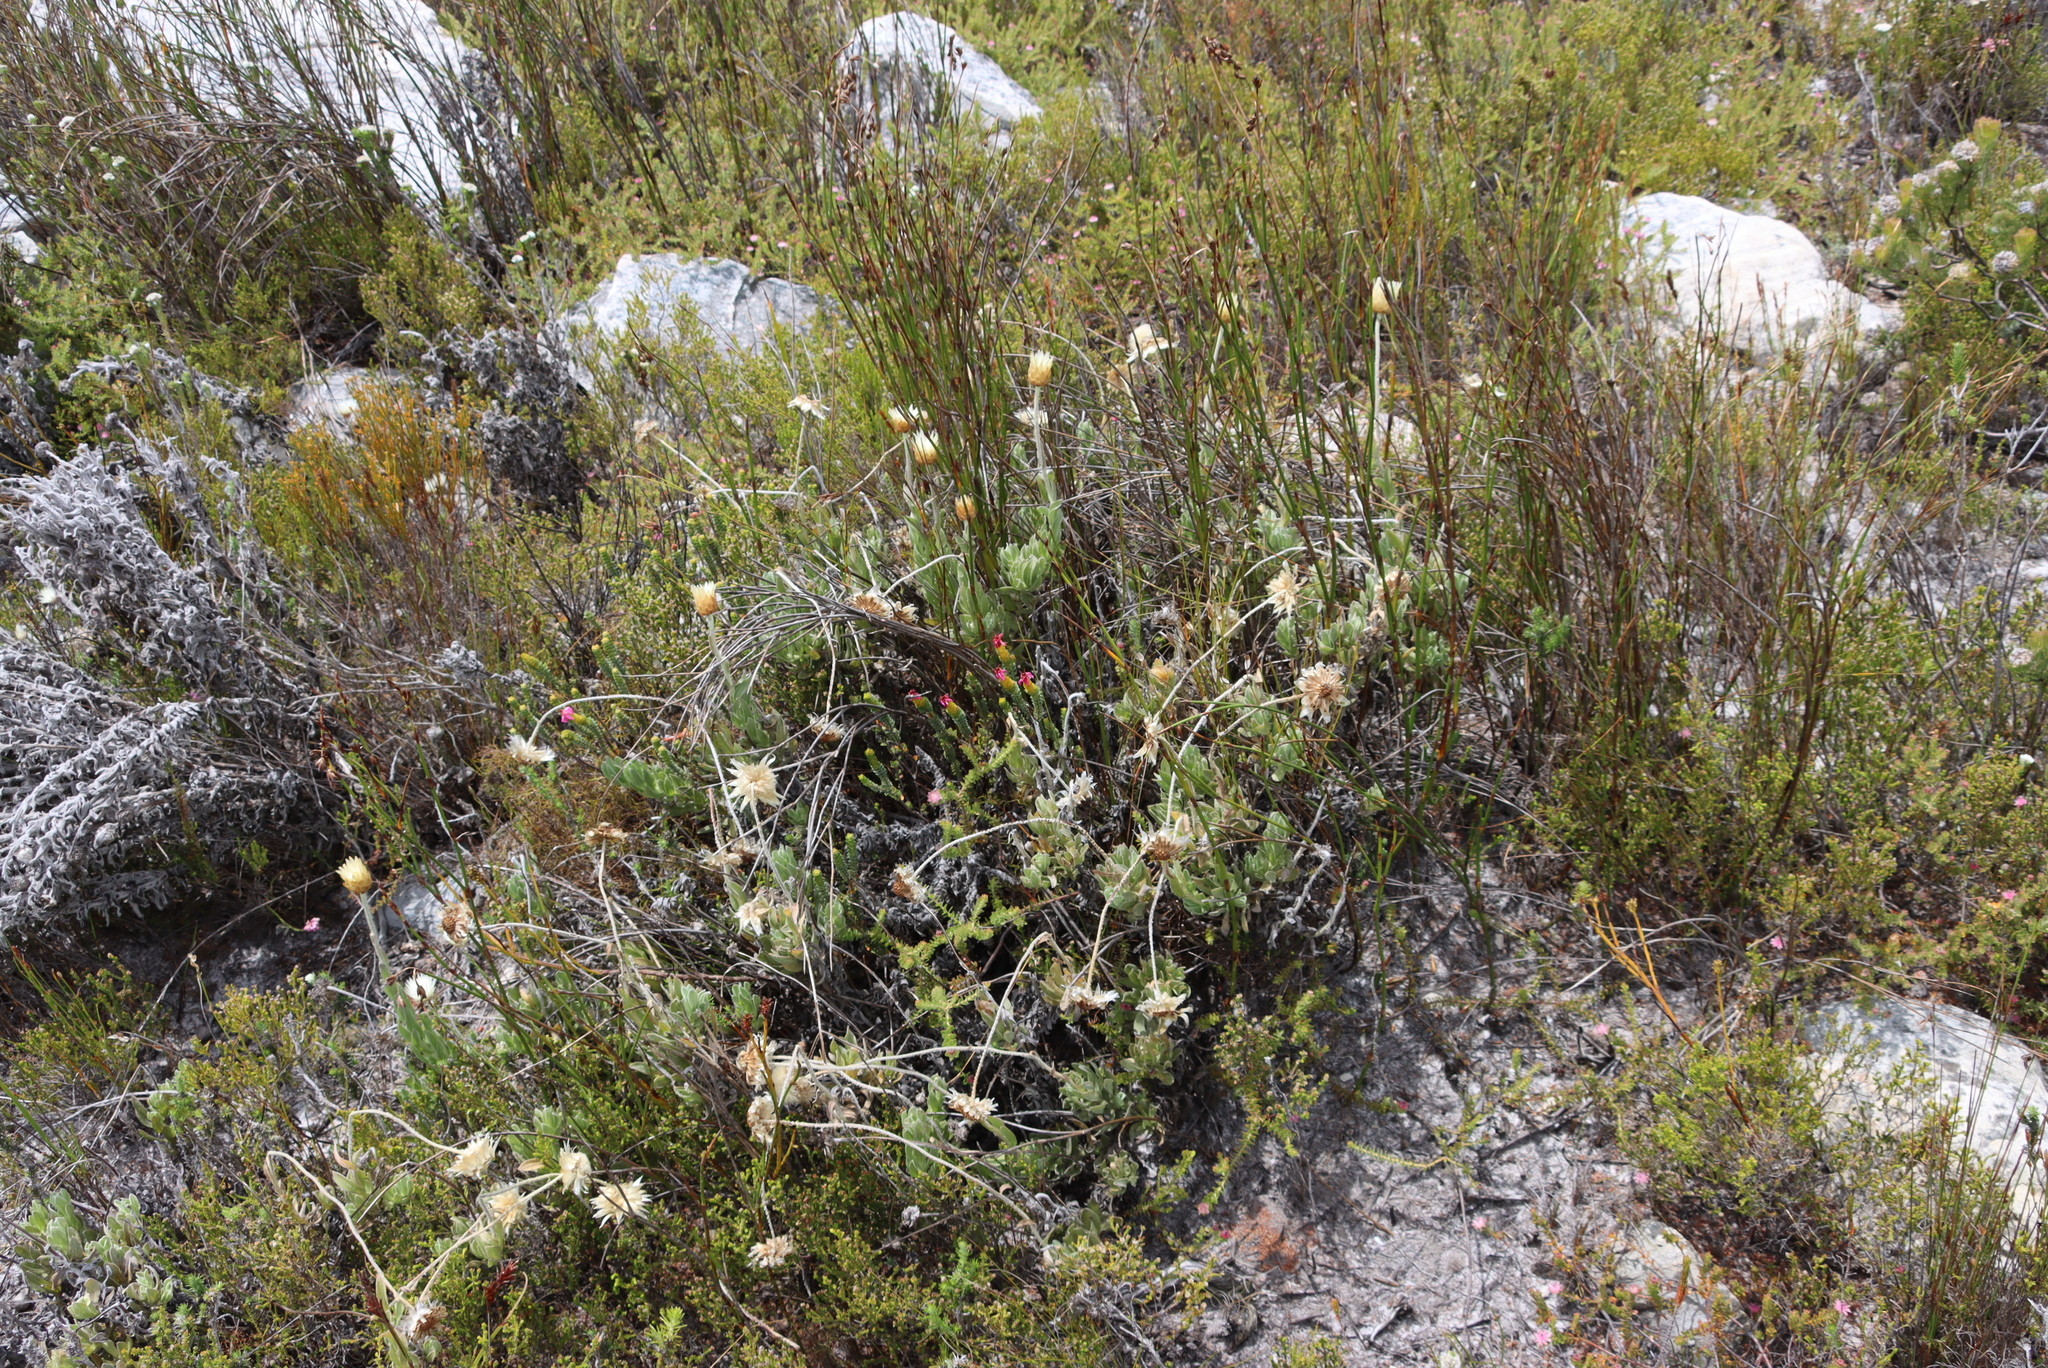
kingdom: Plantae
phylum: Tracheophyta
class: Magnoliopsida
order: Asterales
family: Asteraceae
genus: Syncarpha
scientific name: Syncarpha speciosissima
